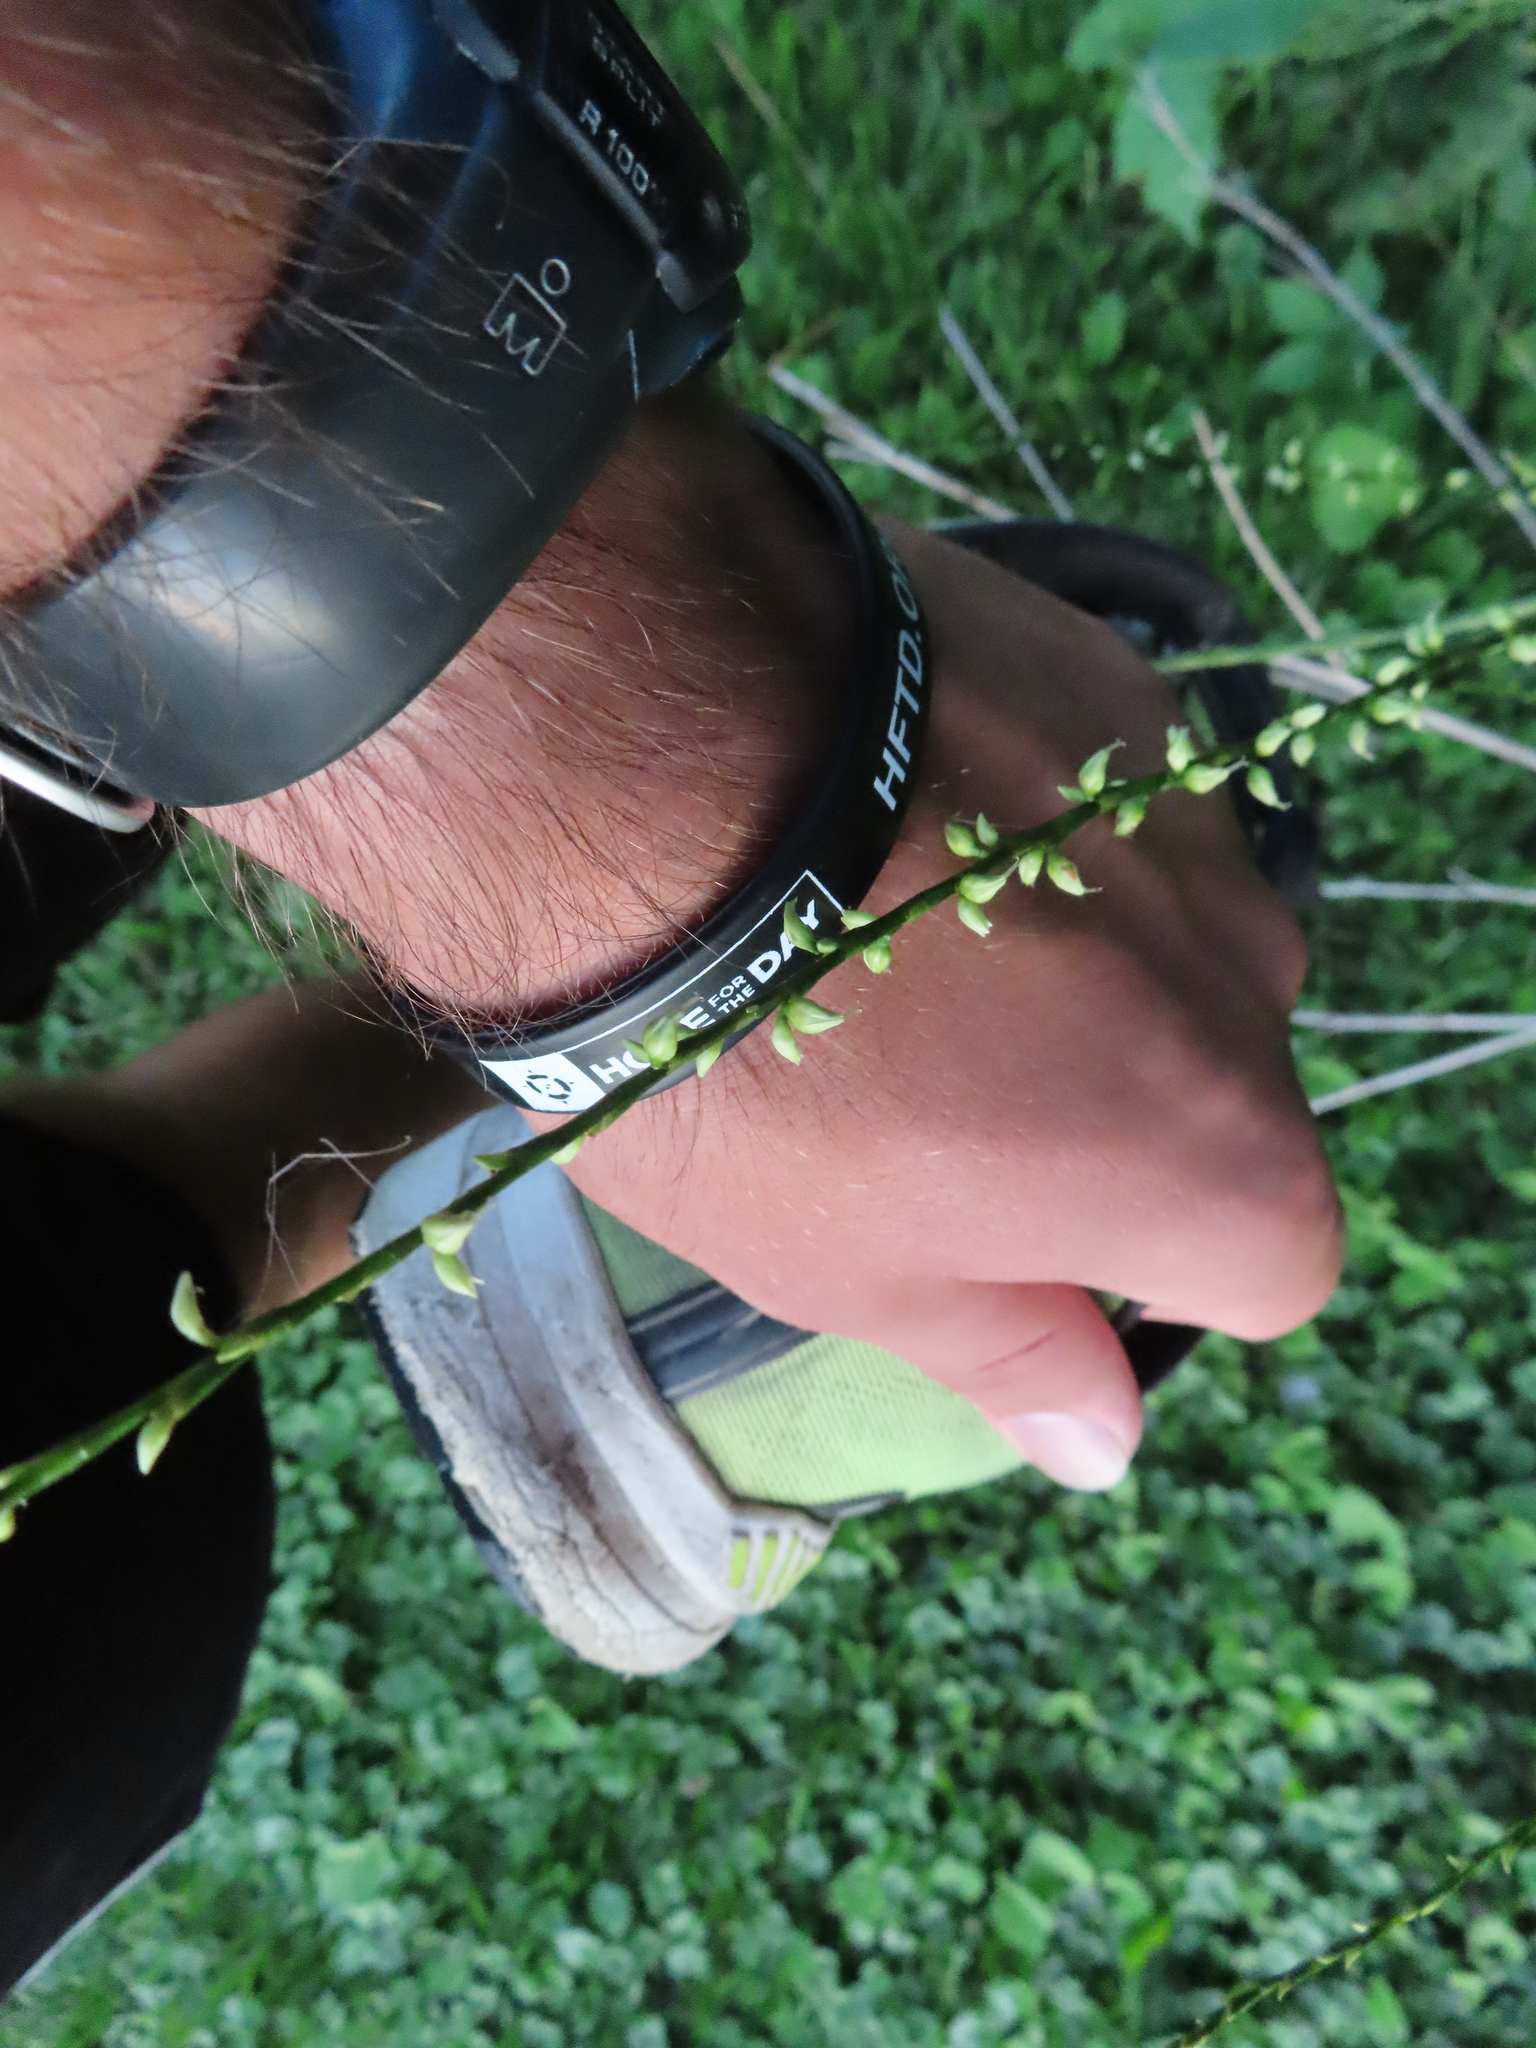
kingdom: Plantae
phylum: Tracheophyta
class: Magnoliopsida
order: Caryophyllales
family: Polygonaceae
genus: Persicaria
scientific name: Persicaria virginiana
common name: Jumpseed
